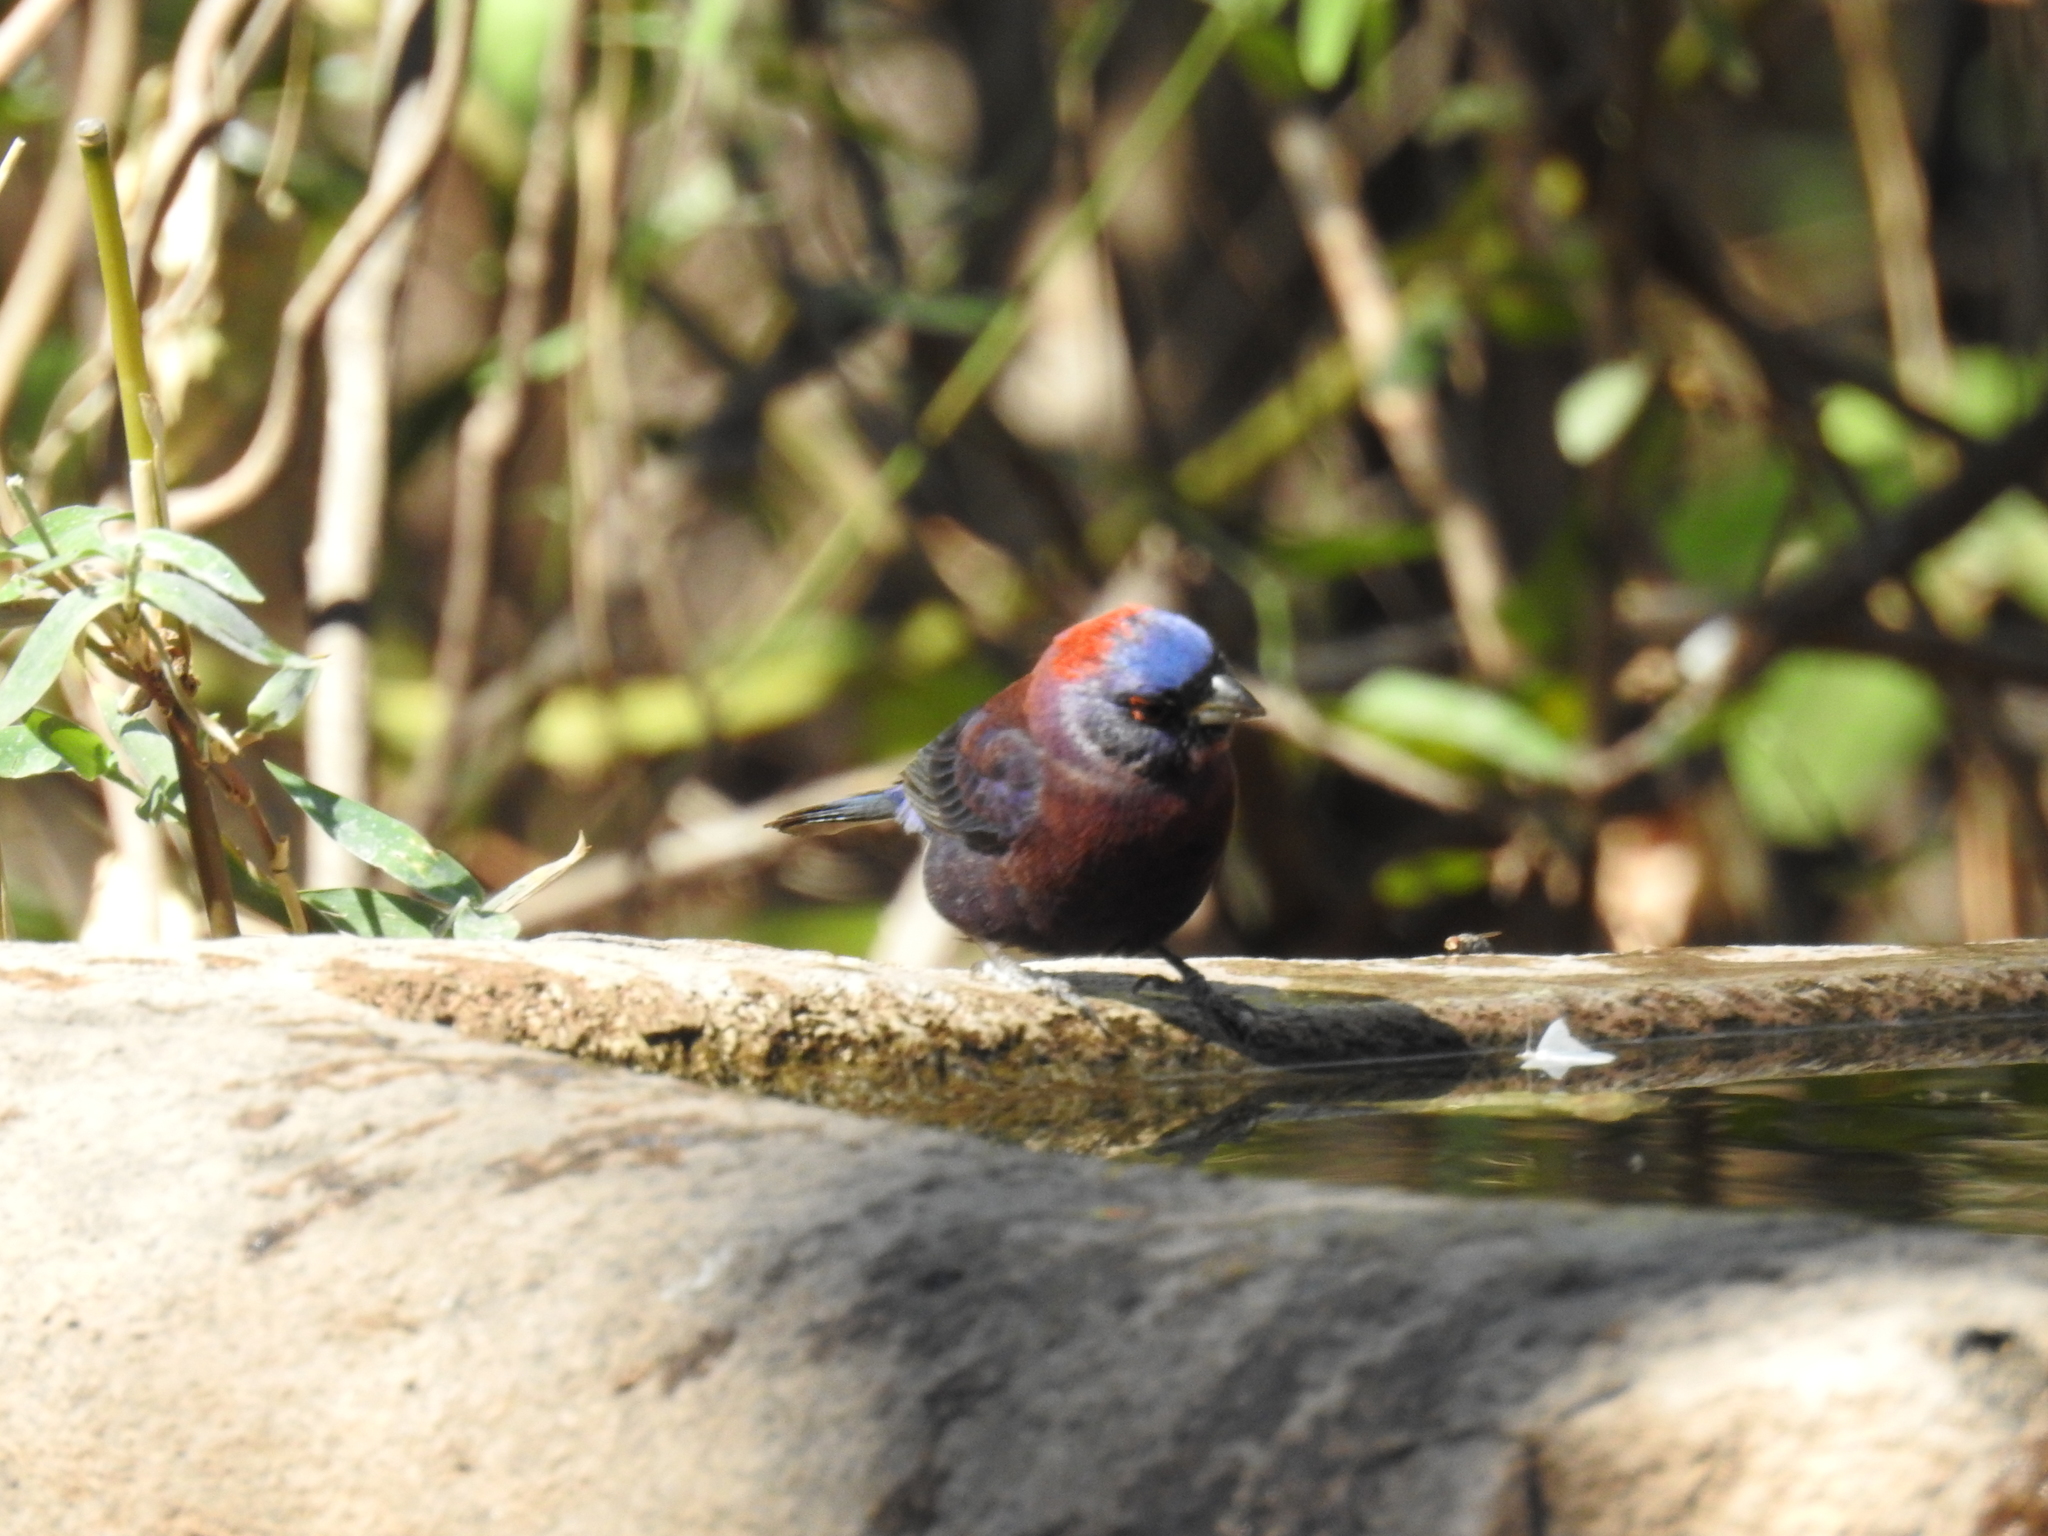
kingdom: Animalia
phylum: Chordata
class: Aves
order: Passeriformes
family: Cardinalidae
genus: Passerina
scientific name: Passerina versicolor
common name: Varied bunting
